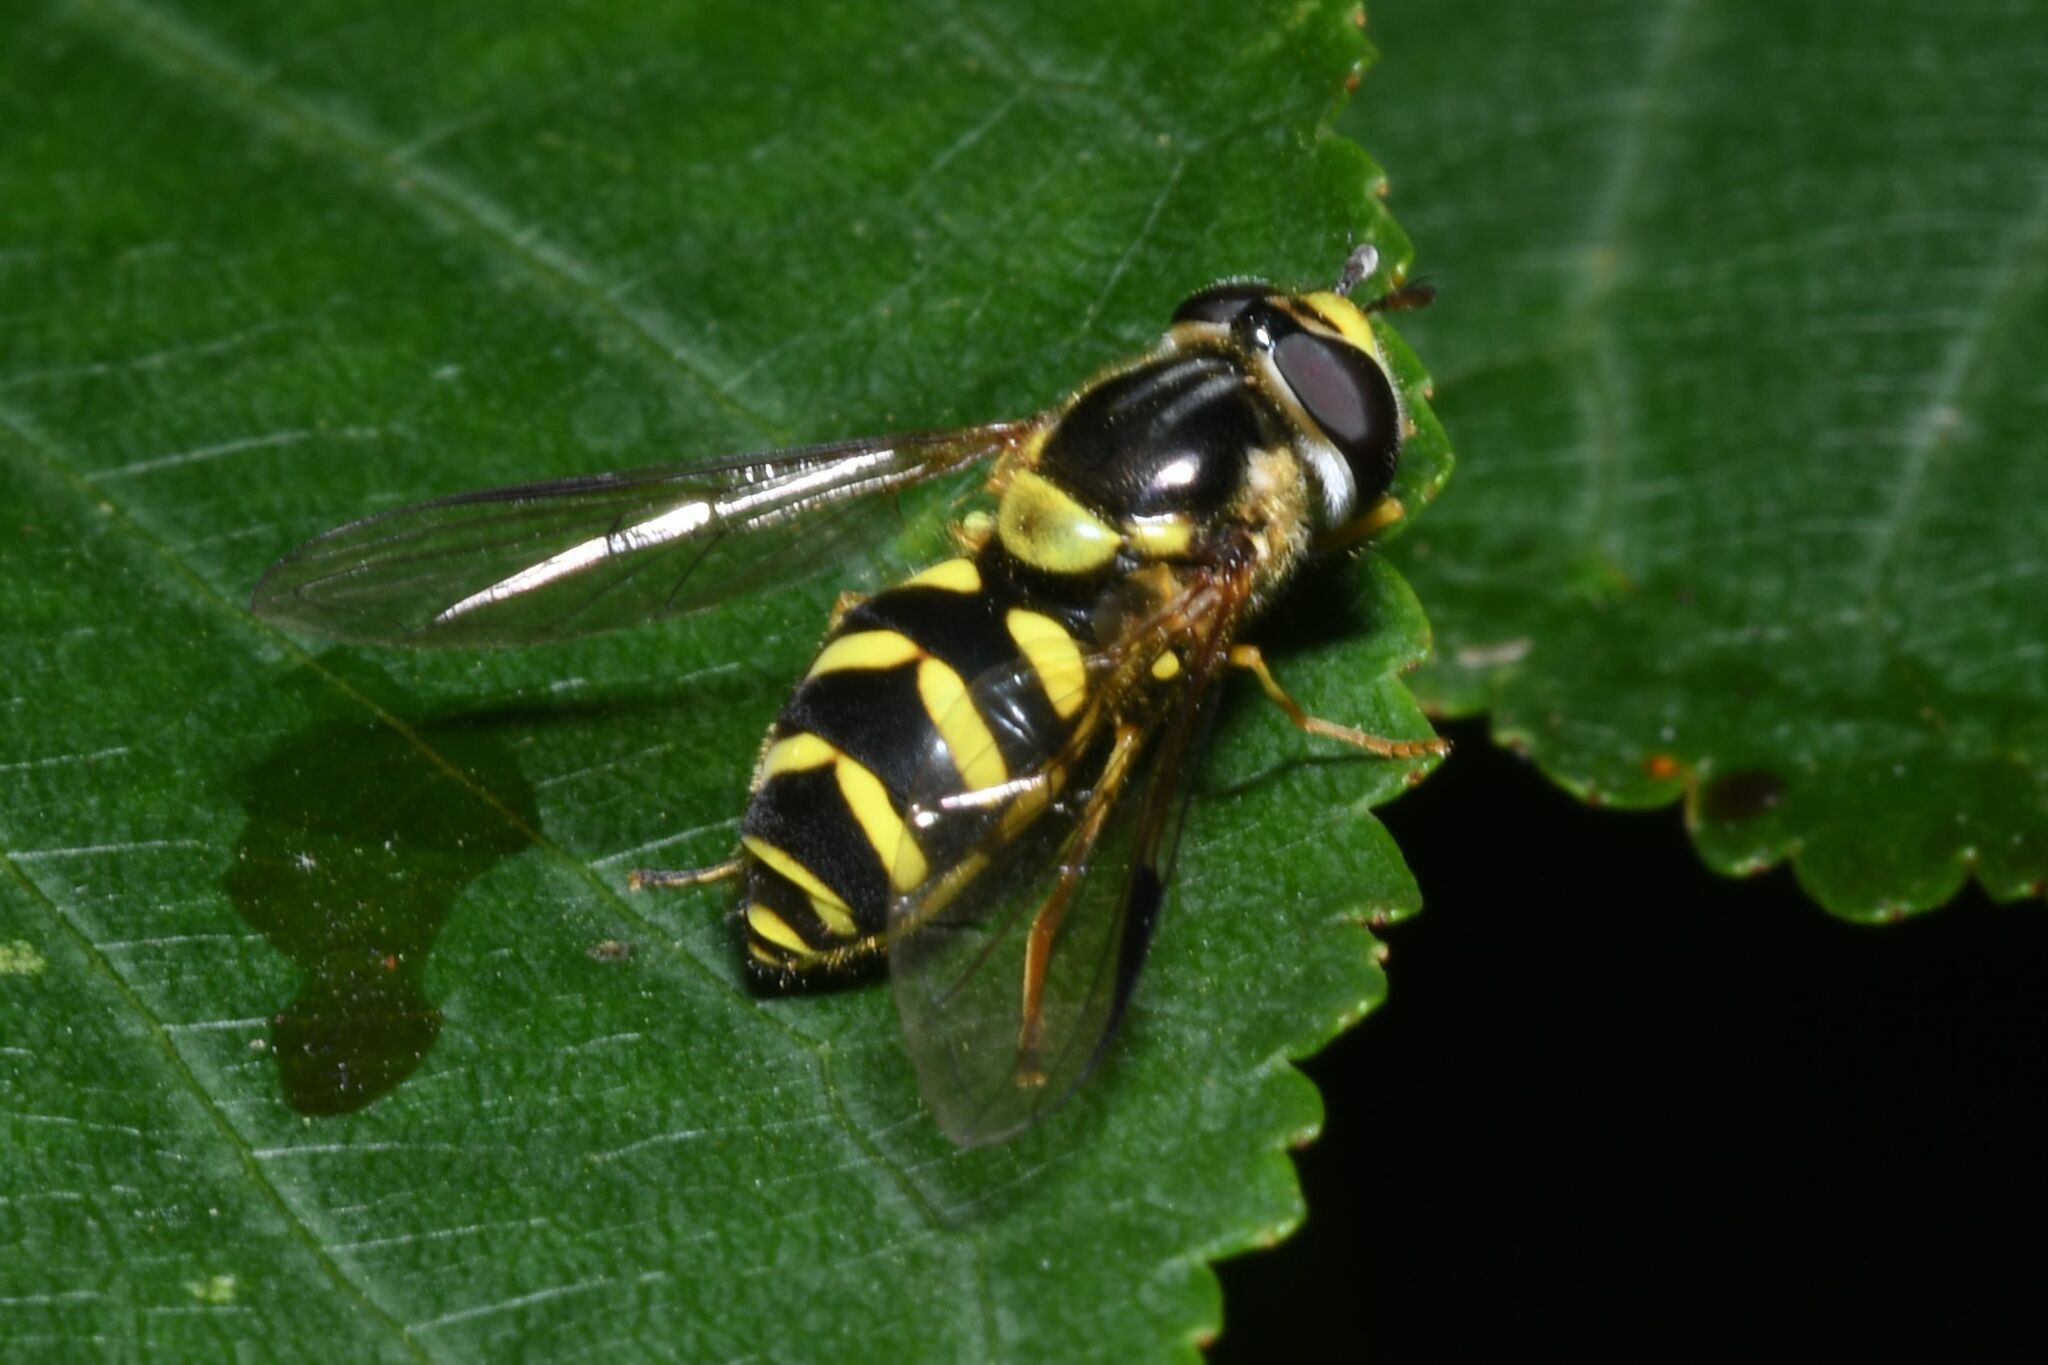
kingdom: Animalia
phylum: Arthropoda
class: Insecta
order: Diptera
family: Syrphidae
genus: Dasysyrphus
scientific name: Dasysyrphus albostriatus
